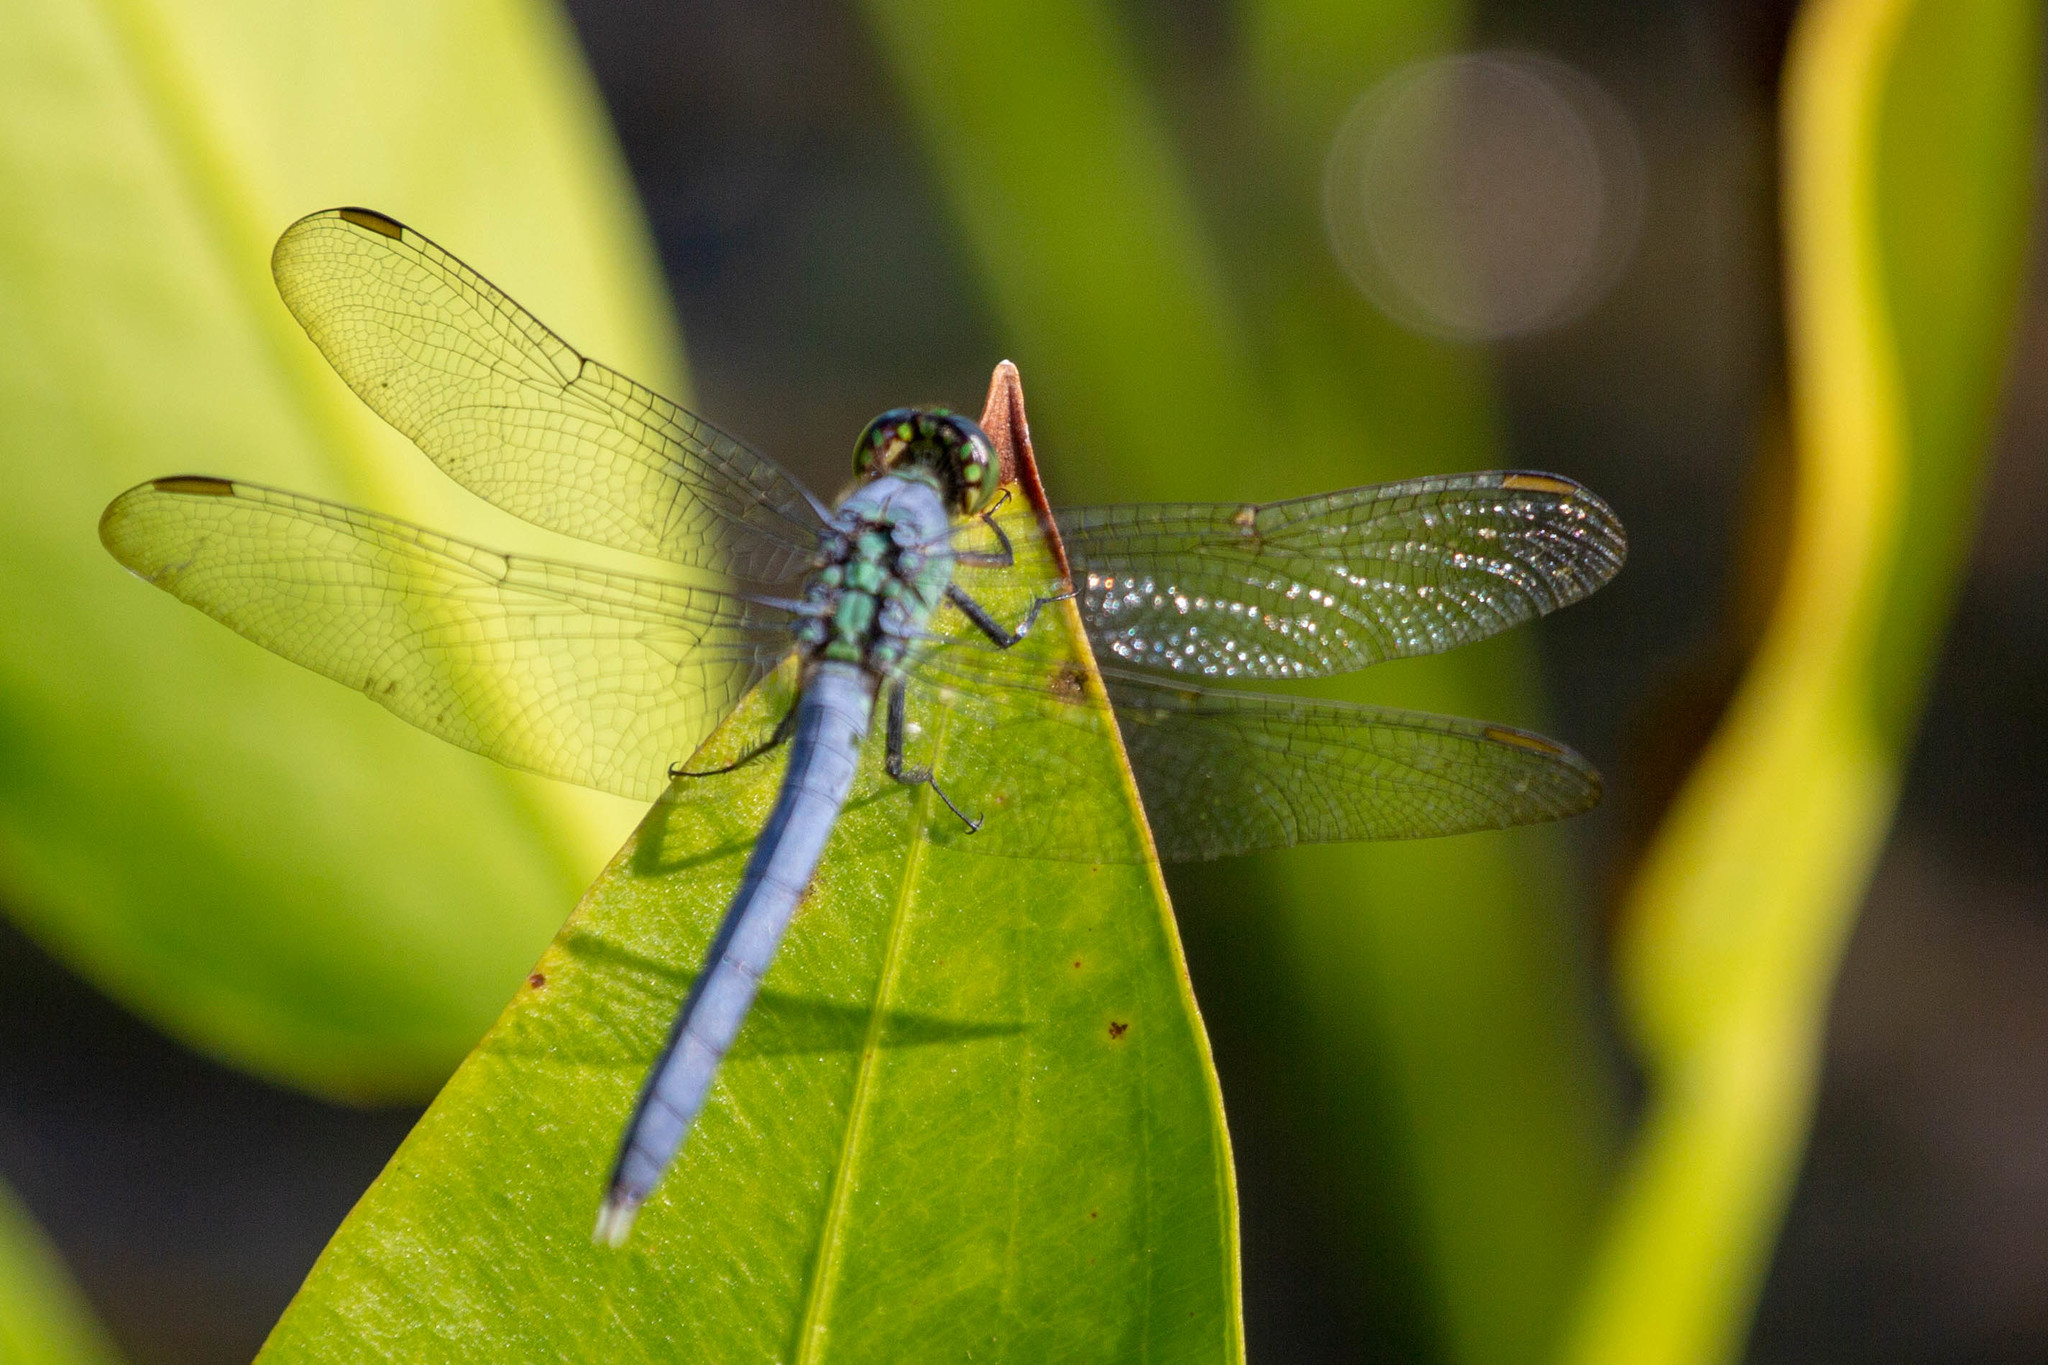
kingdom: Animalia
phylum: Arthropoda
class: Insecta
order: Odonata
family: Libellulidae
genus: Erythemis
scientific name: Erythemis simplicicollis
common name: Eastern pondhawk
